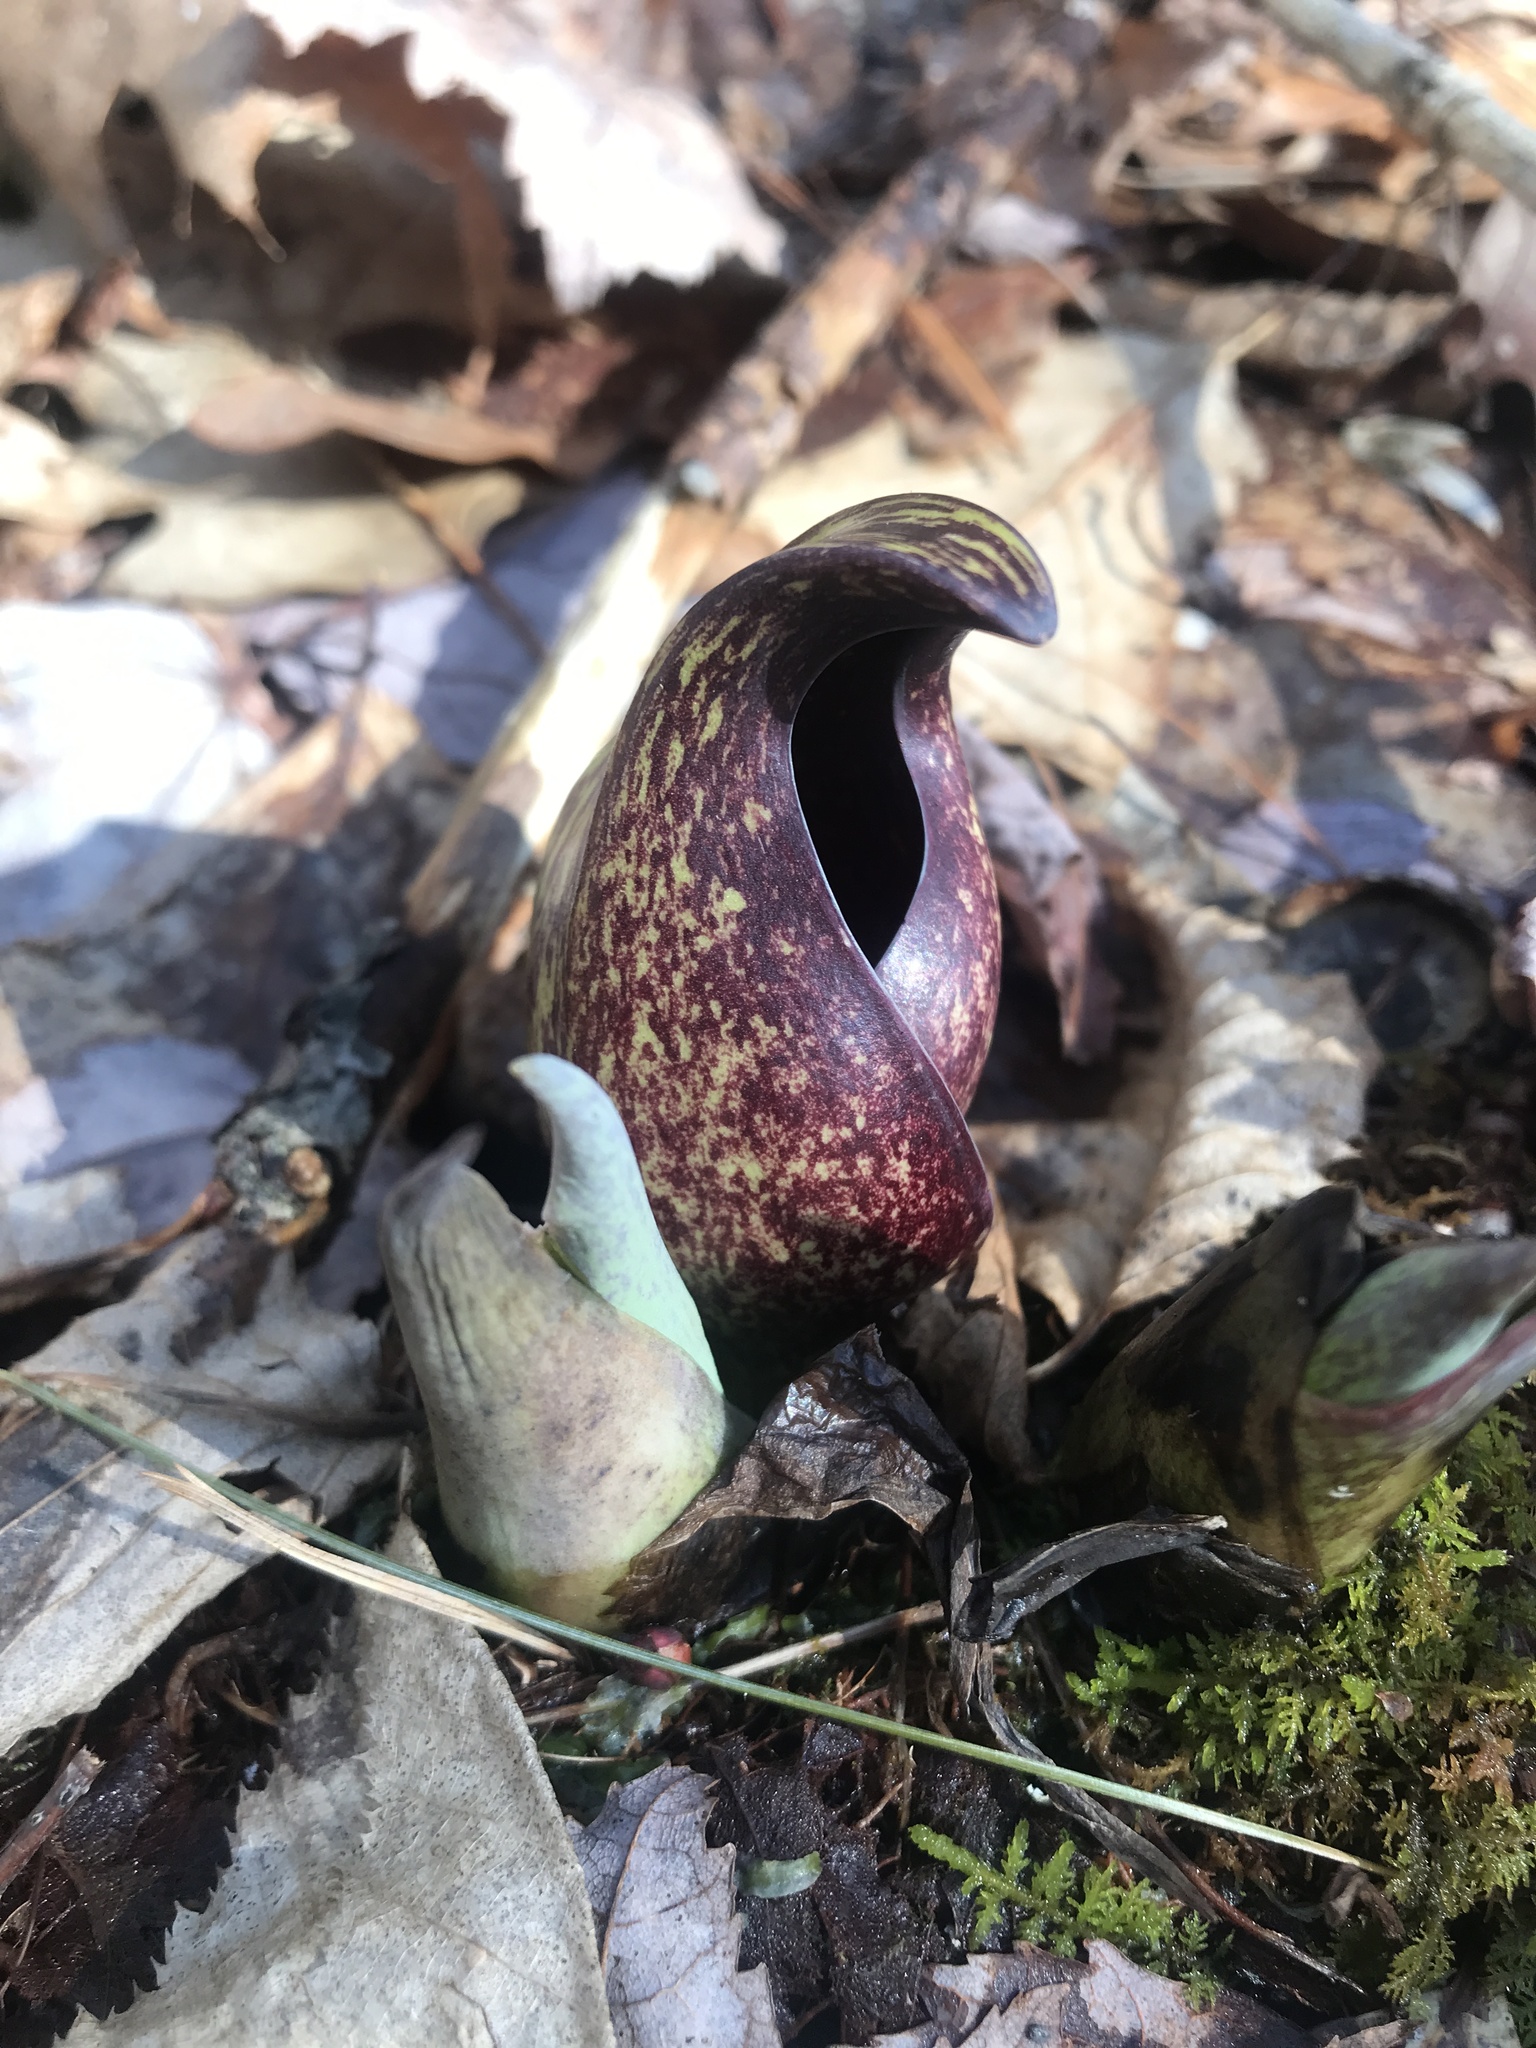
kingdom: Plantae
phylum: Tracheophyta
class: Liliopsida
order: Alismatales
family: Araceae
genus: Symplocarpus
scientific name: Symplocarpus foetidus
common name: Eastern skunk cabbage
